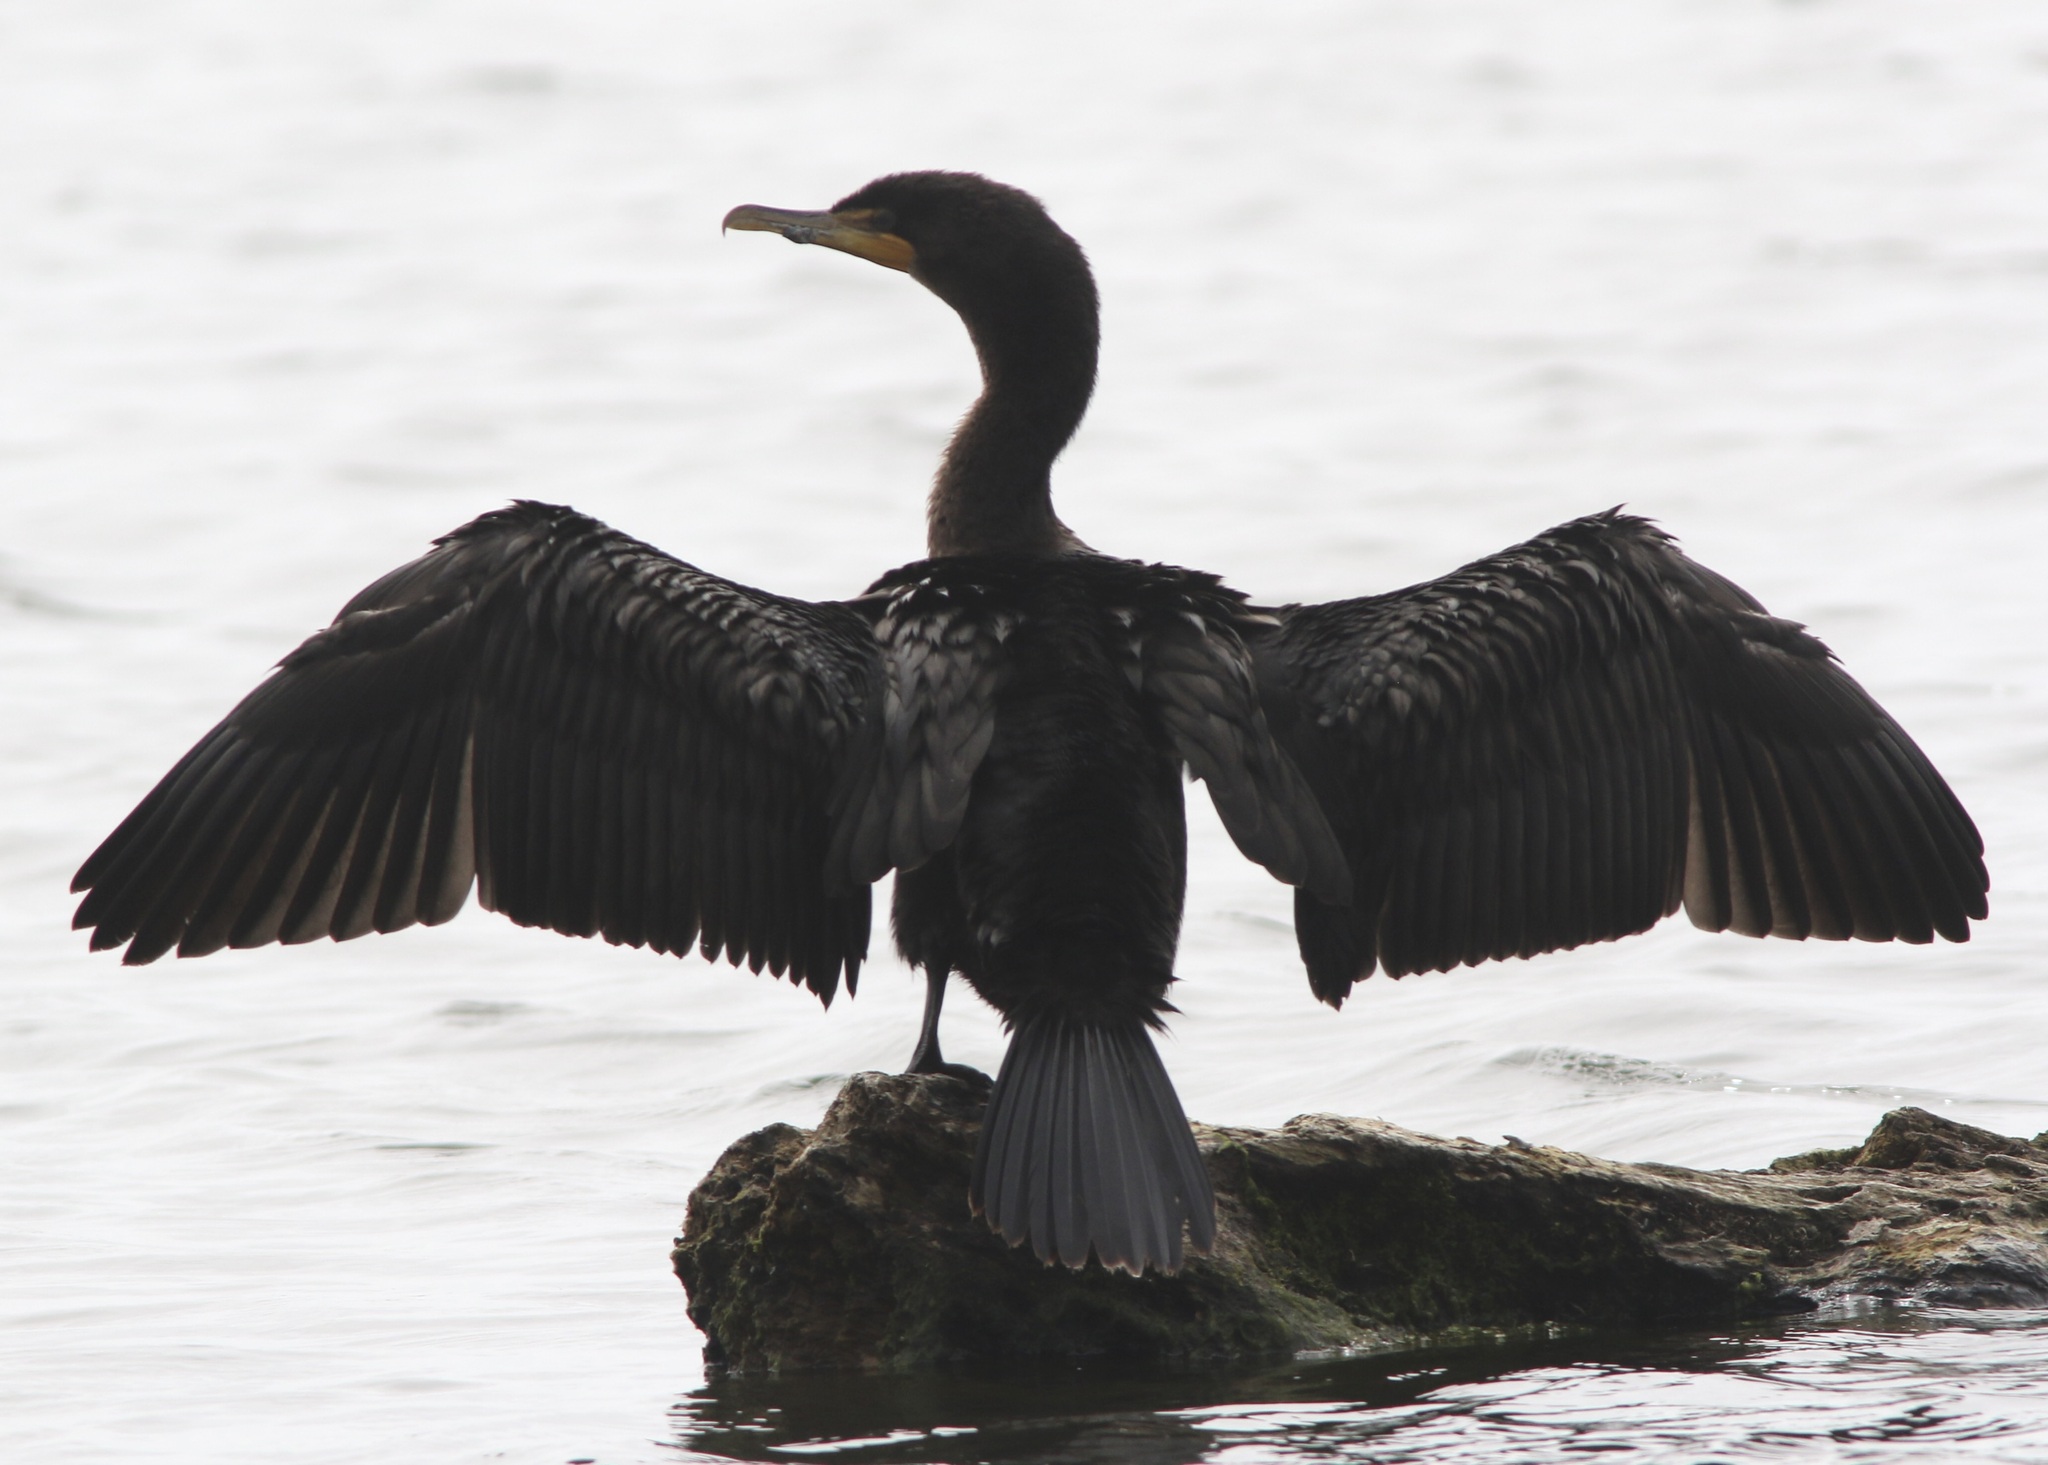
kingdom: Animalia
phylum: Chordata
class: Aves
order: Suliformes
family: Phalacrocoracidae
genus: Phalacrocorax
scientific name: Phalacrocorax auritus
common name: Double-crested cormorant
